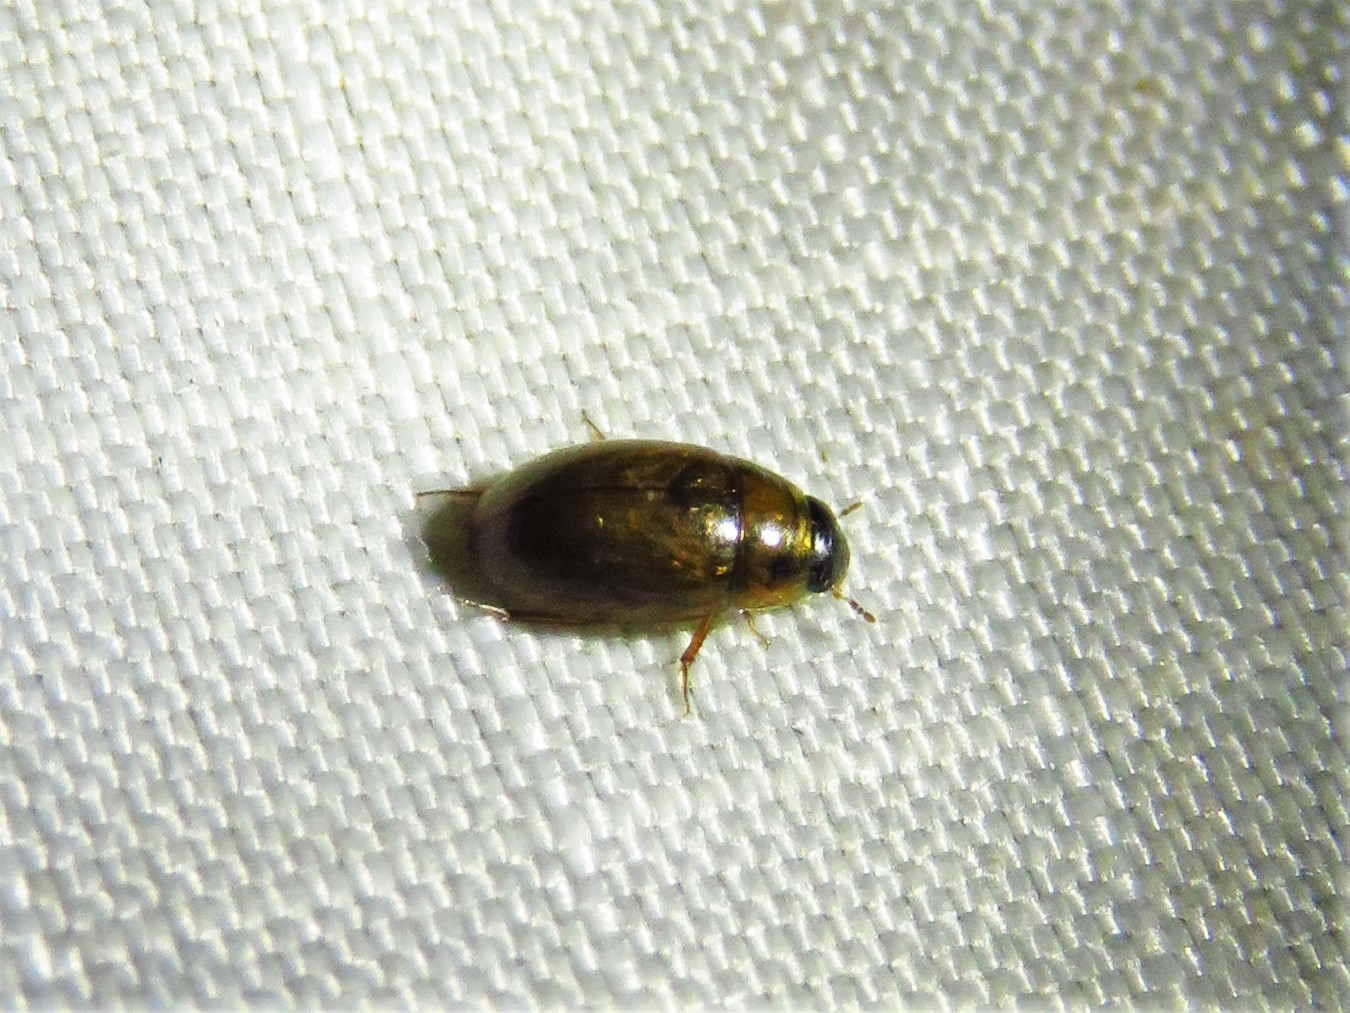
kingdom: Animalia
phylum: Arthropoda
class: Insecta
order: Coleoptera
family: Hydrophilidae
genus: Enochrus
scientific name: Enochrus
